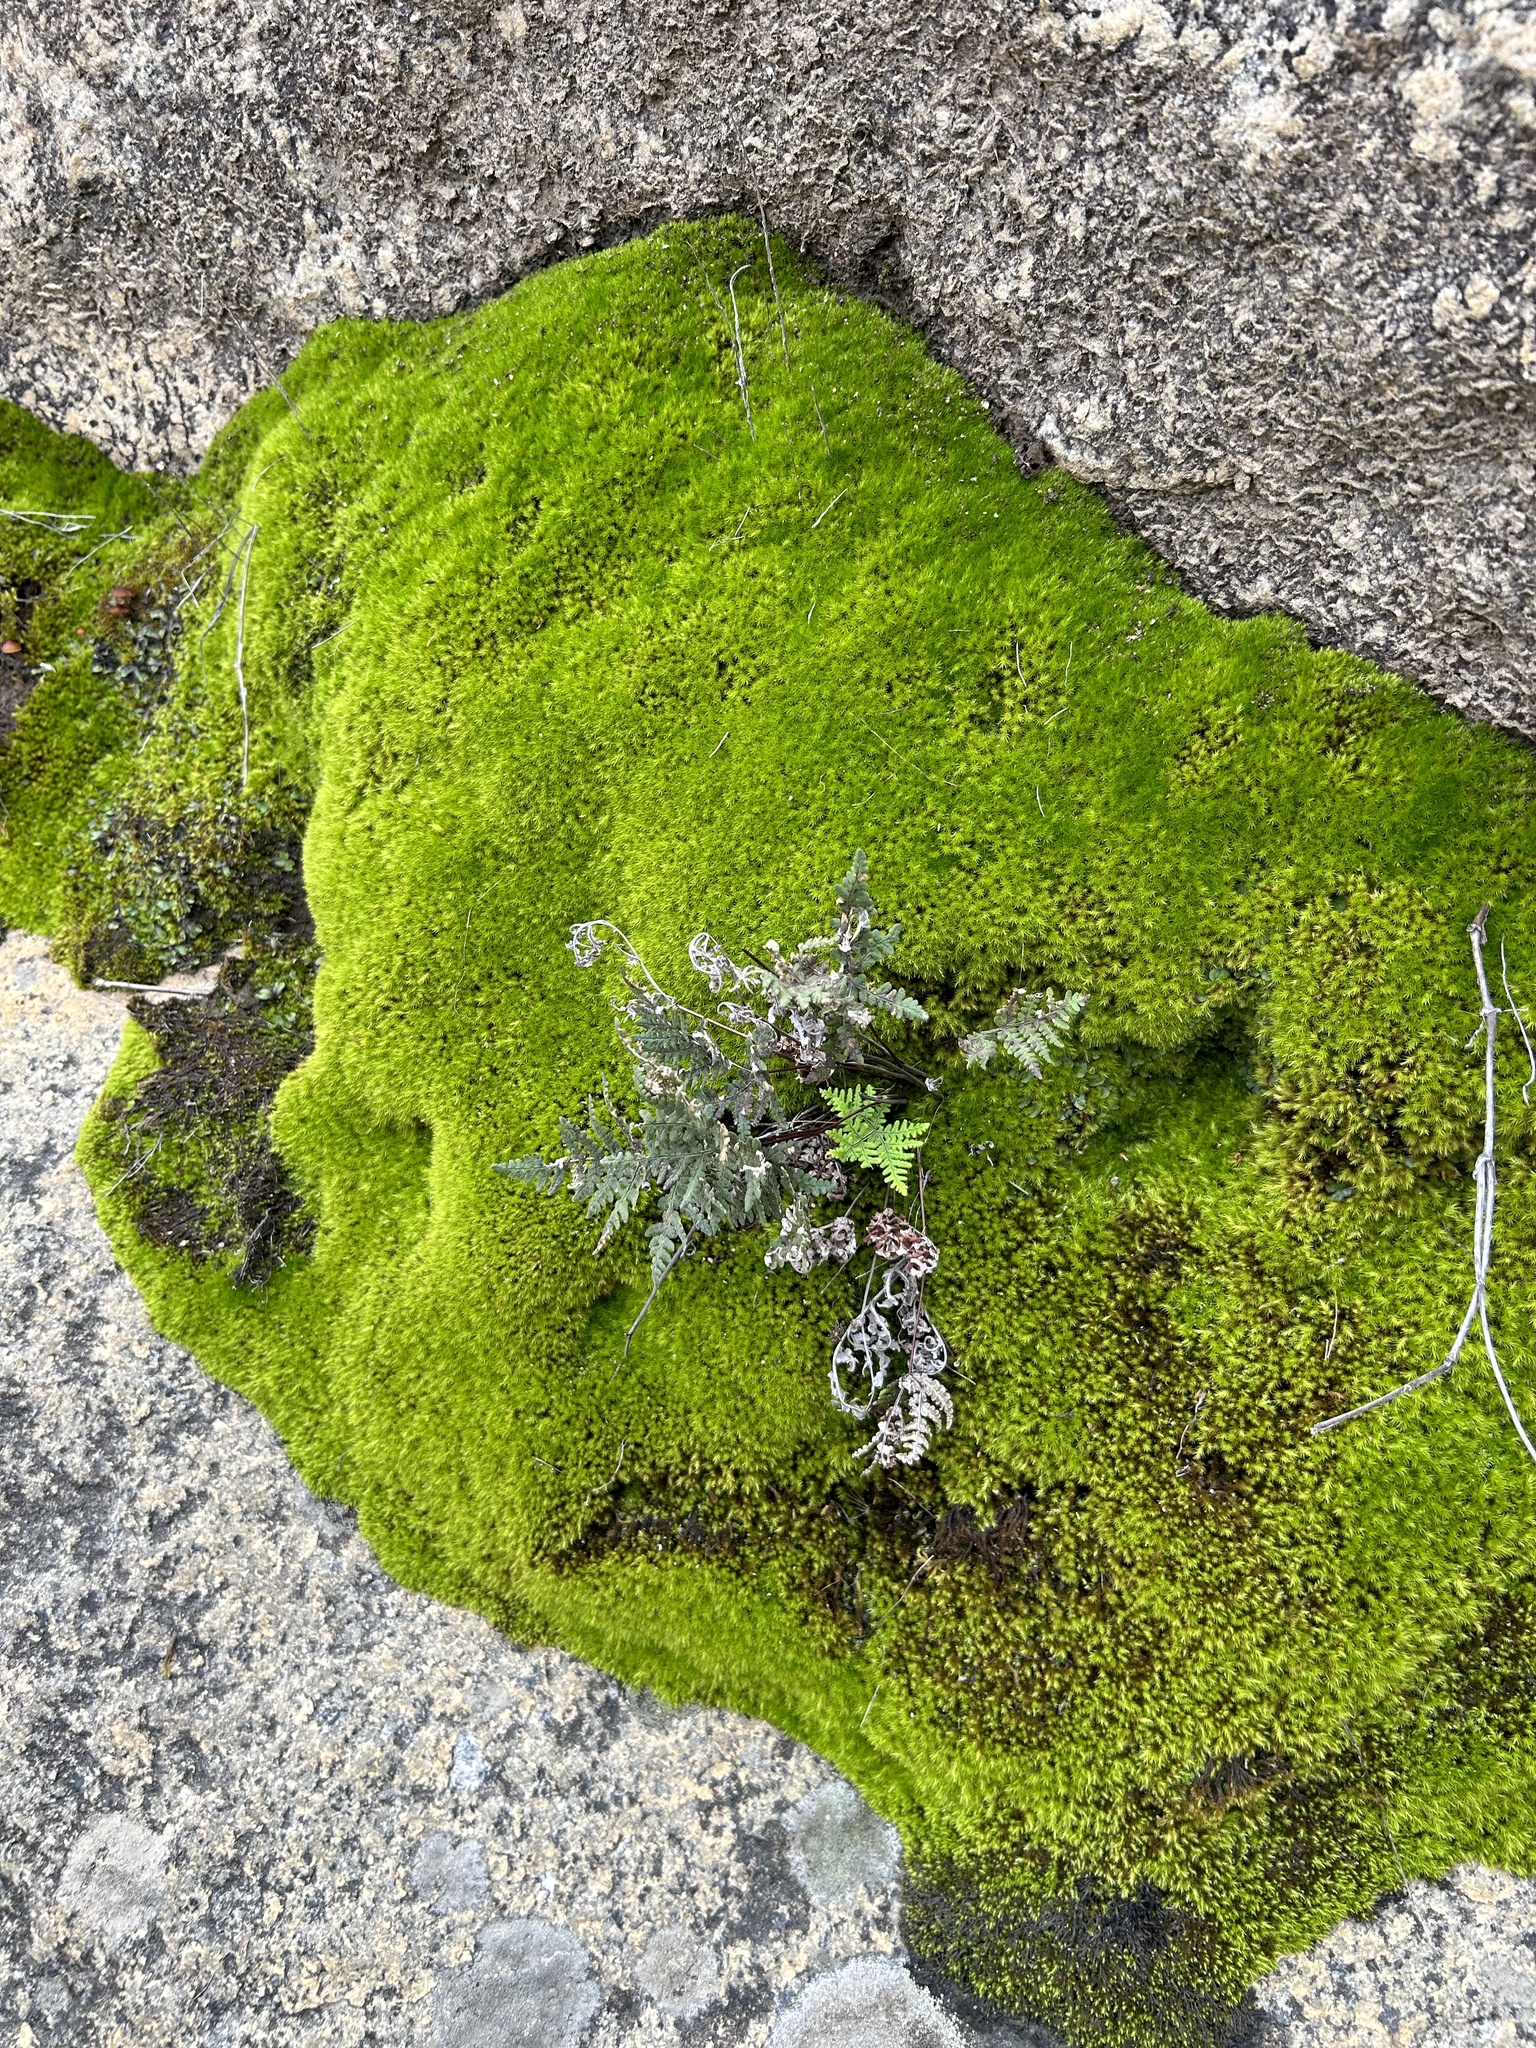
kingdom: Plantae
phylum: Tracheophyta
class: Polypodiopsida
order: Polypodiales
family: Pteridaceae
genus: Pentagramma
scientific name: Pentagramma glanduloviscida
